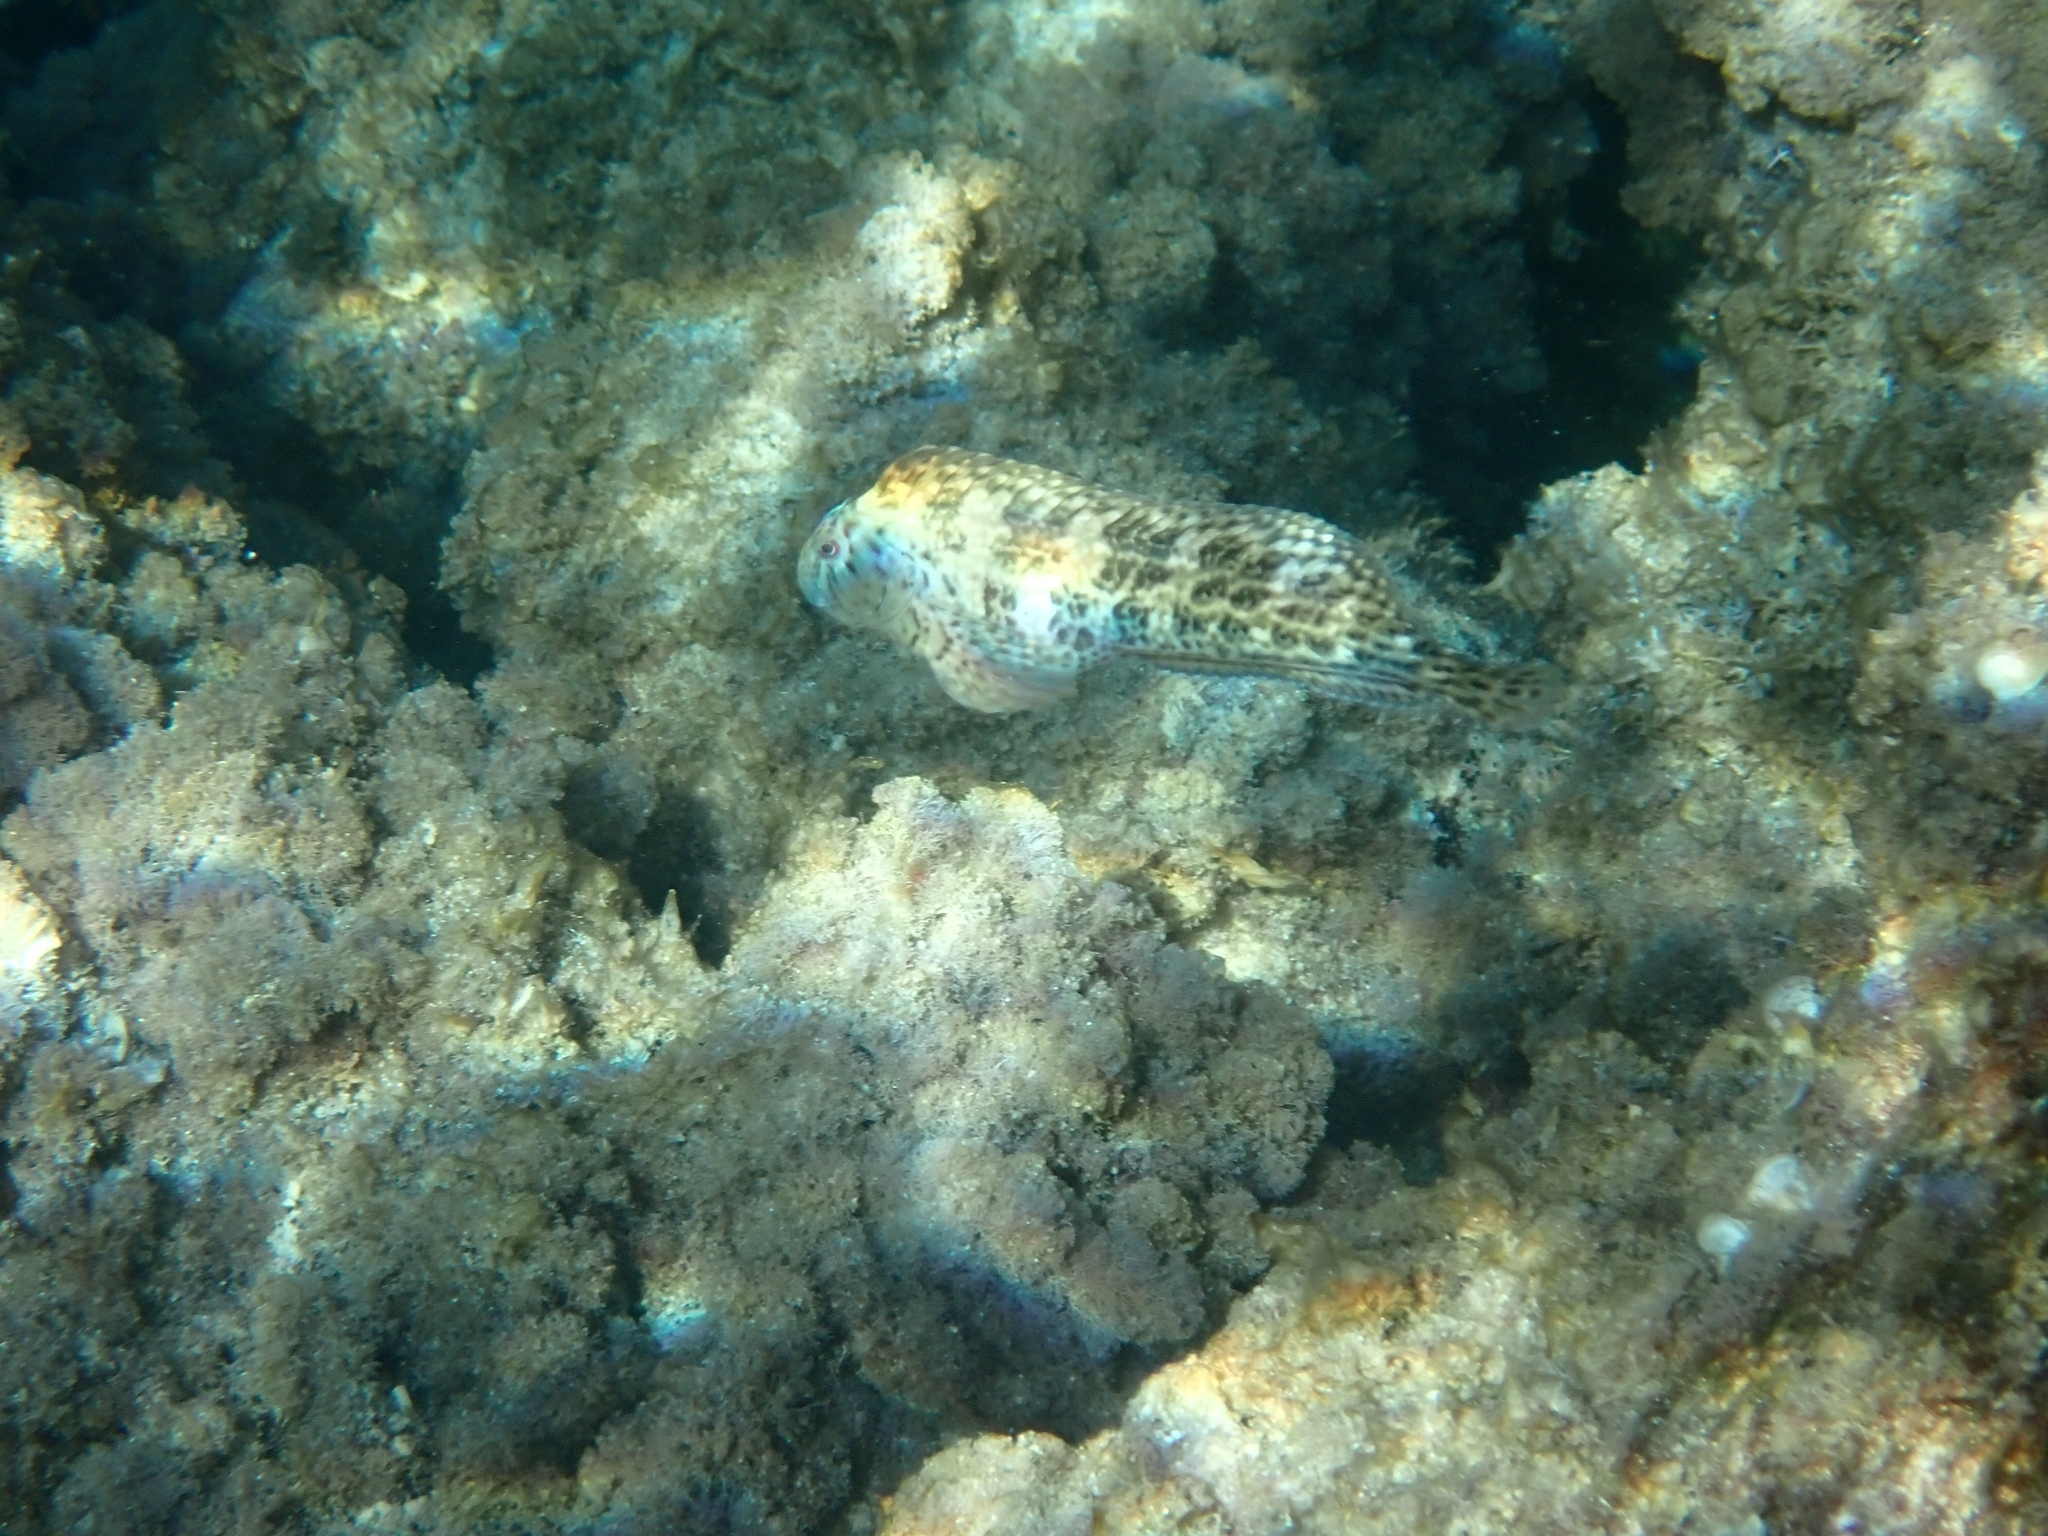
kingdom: Animalia
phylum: Chordata
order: Perciformes
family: Blenniidae
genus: Parablennius
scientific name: Parablennius sanguinolentus
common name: Black sea blenny
